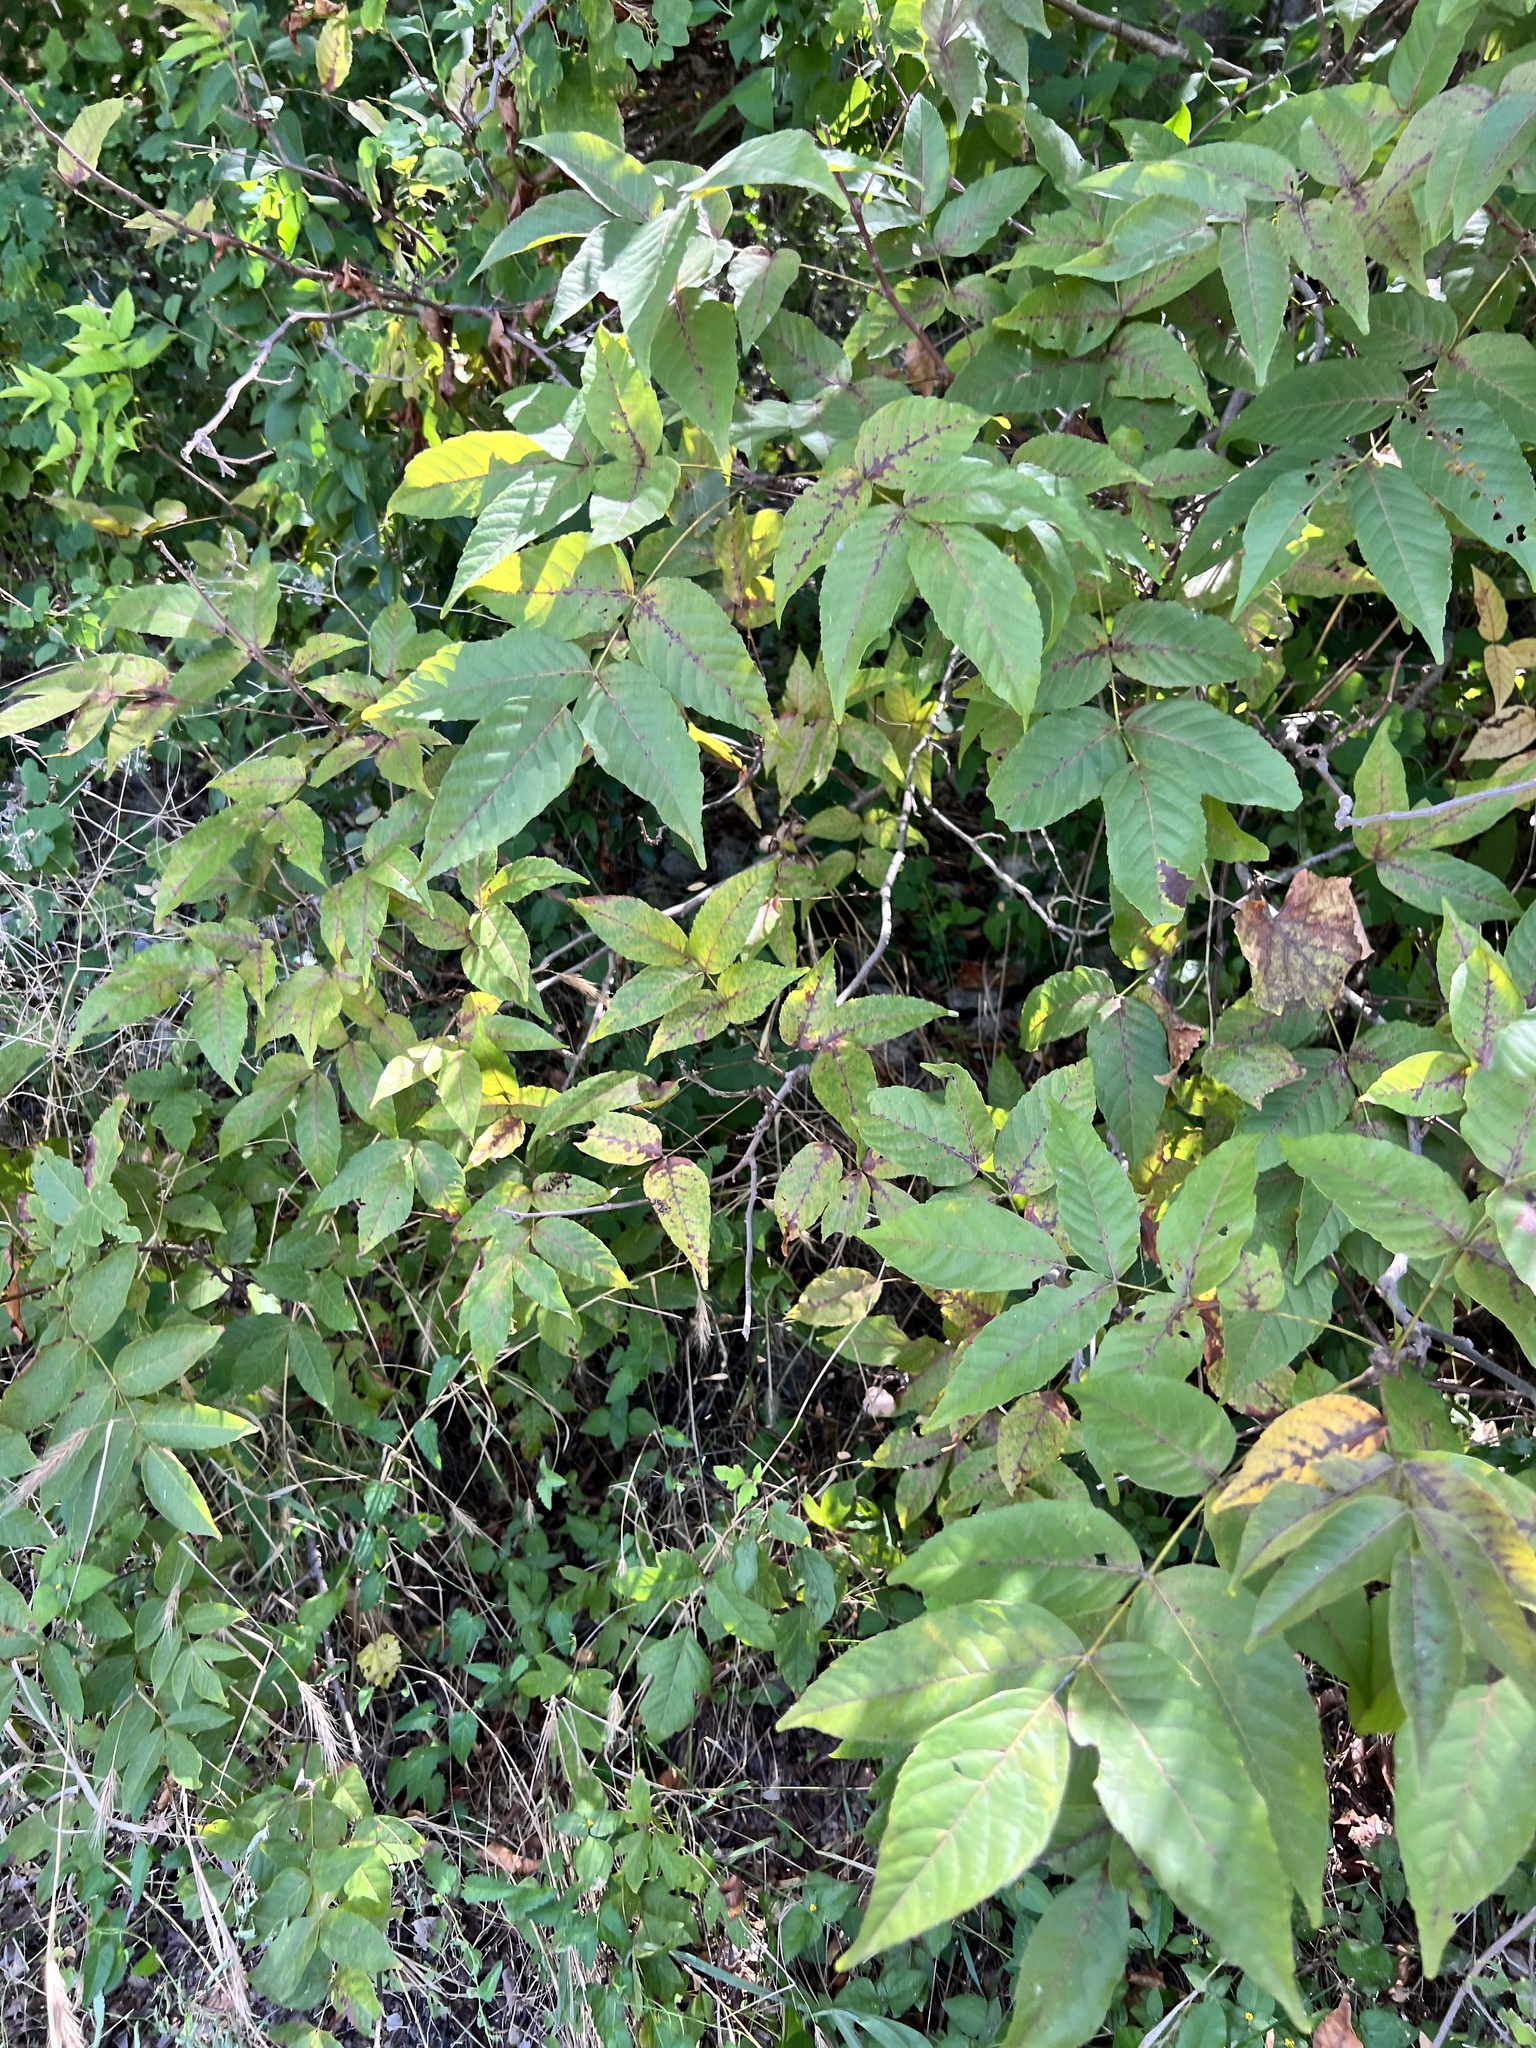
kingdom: Plantae
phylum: Tracheophyta
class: Magnoliopsida
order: Sapindales
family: Sapindaceae
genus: Ungnadia
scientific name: Ungnadia speciosa
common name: Texas-buckeye
